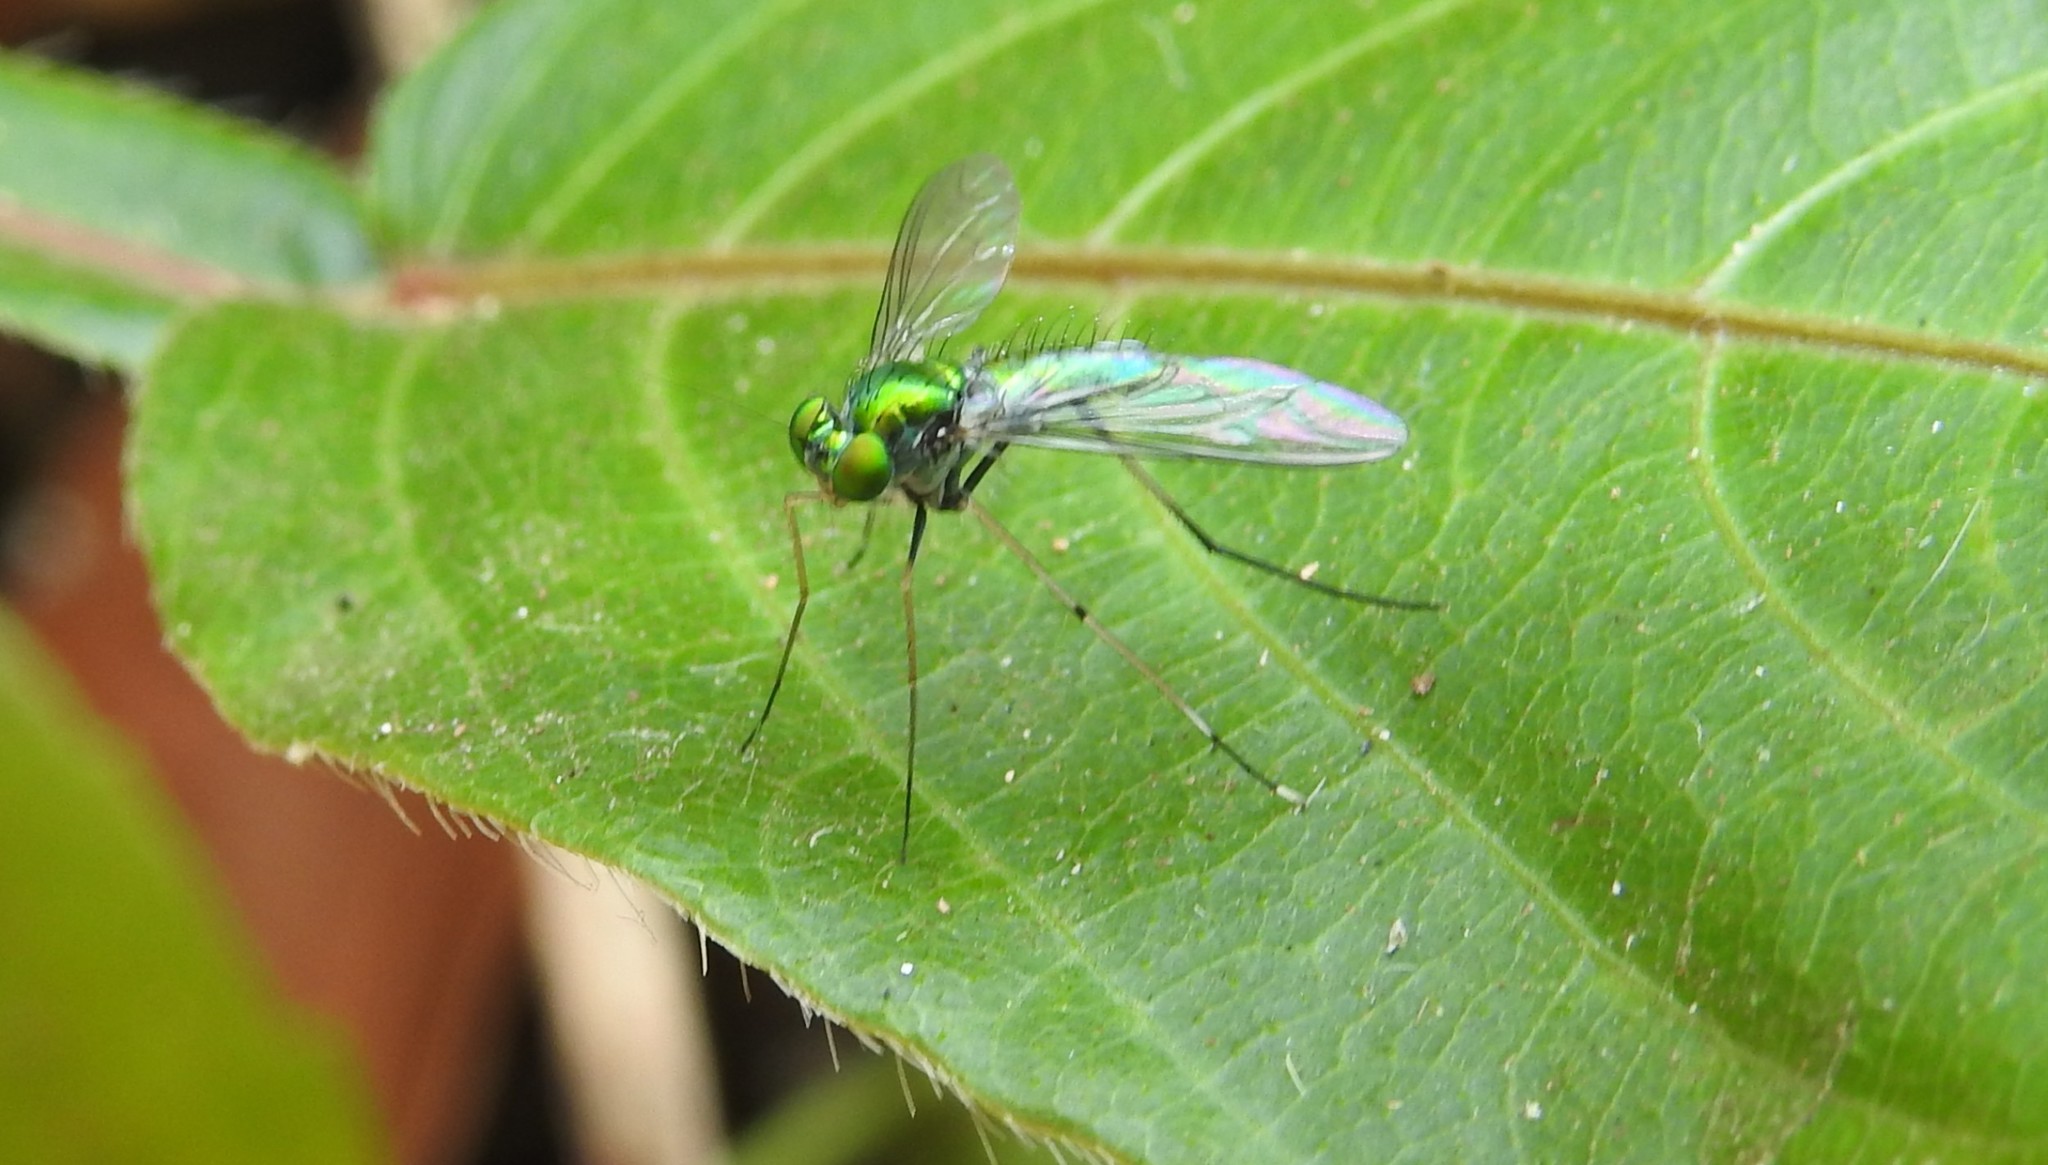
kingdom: Animalia
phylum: Arthropoda
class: Insecta
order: Diptera
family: Dolichopodidae
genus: Chrysosoma
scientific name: Chrysosoma leucopogon
